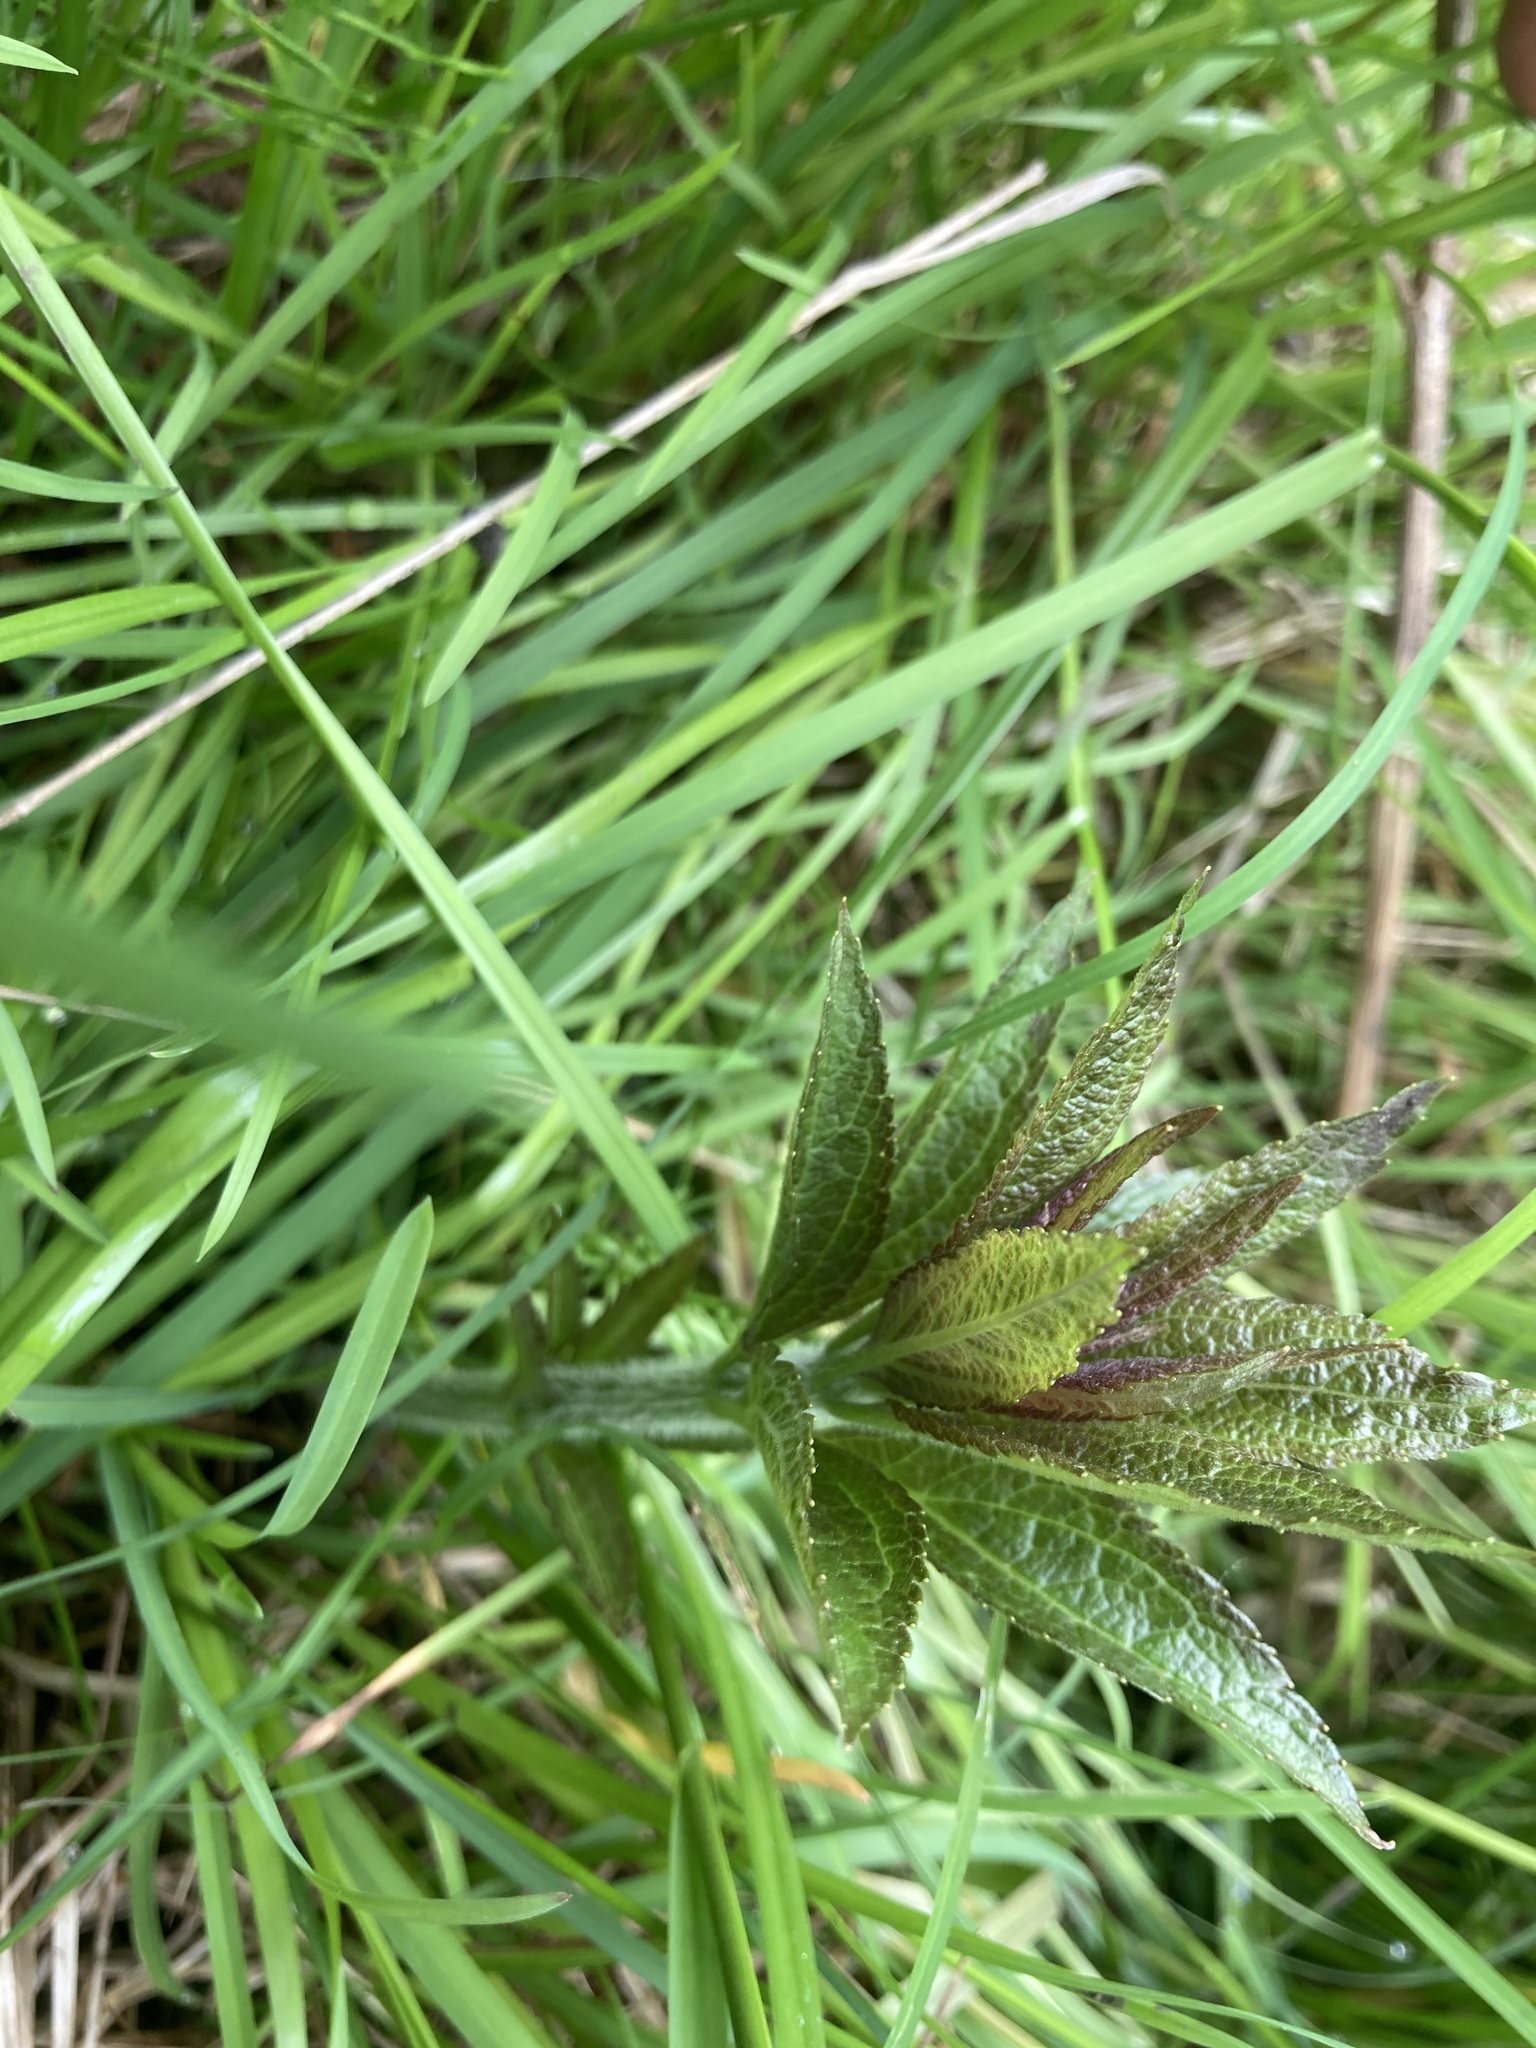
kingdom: Plantae
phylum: Tracheophyta
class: Magnoliopsida
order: Asterales
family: Asteraceae
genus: Eutrochium
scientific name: Eutrochium maculatum
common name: Spotted joe pye weed
